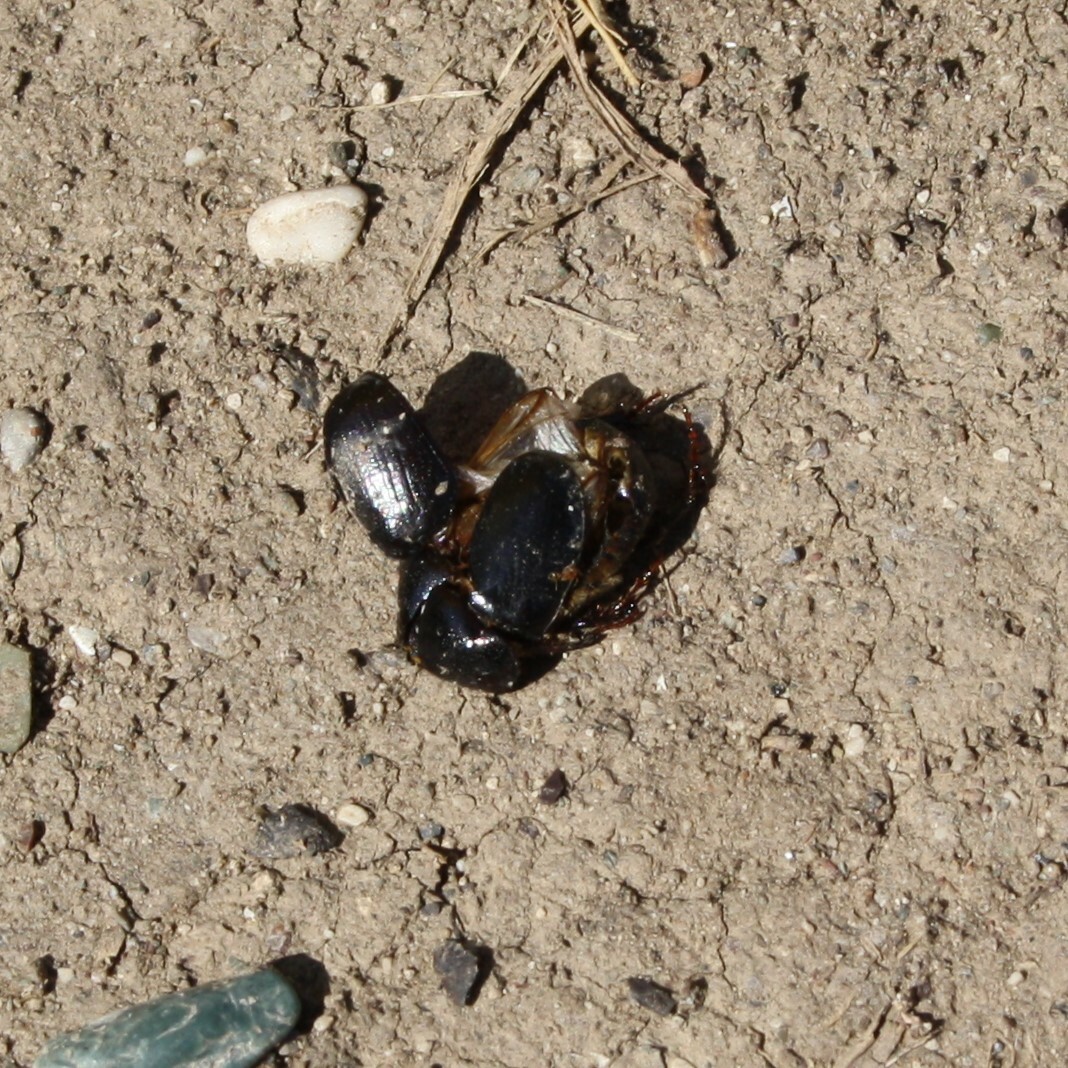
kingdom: Animalia
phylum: Arthropoda
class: Insecta
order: Coleoptera
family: Scarabaeidae
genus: Pentodon
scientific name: Pentodon bidens
